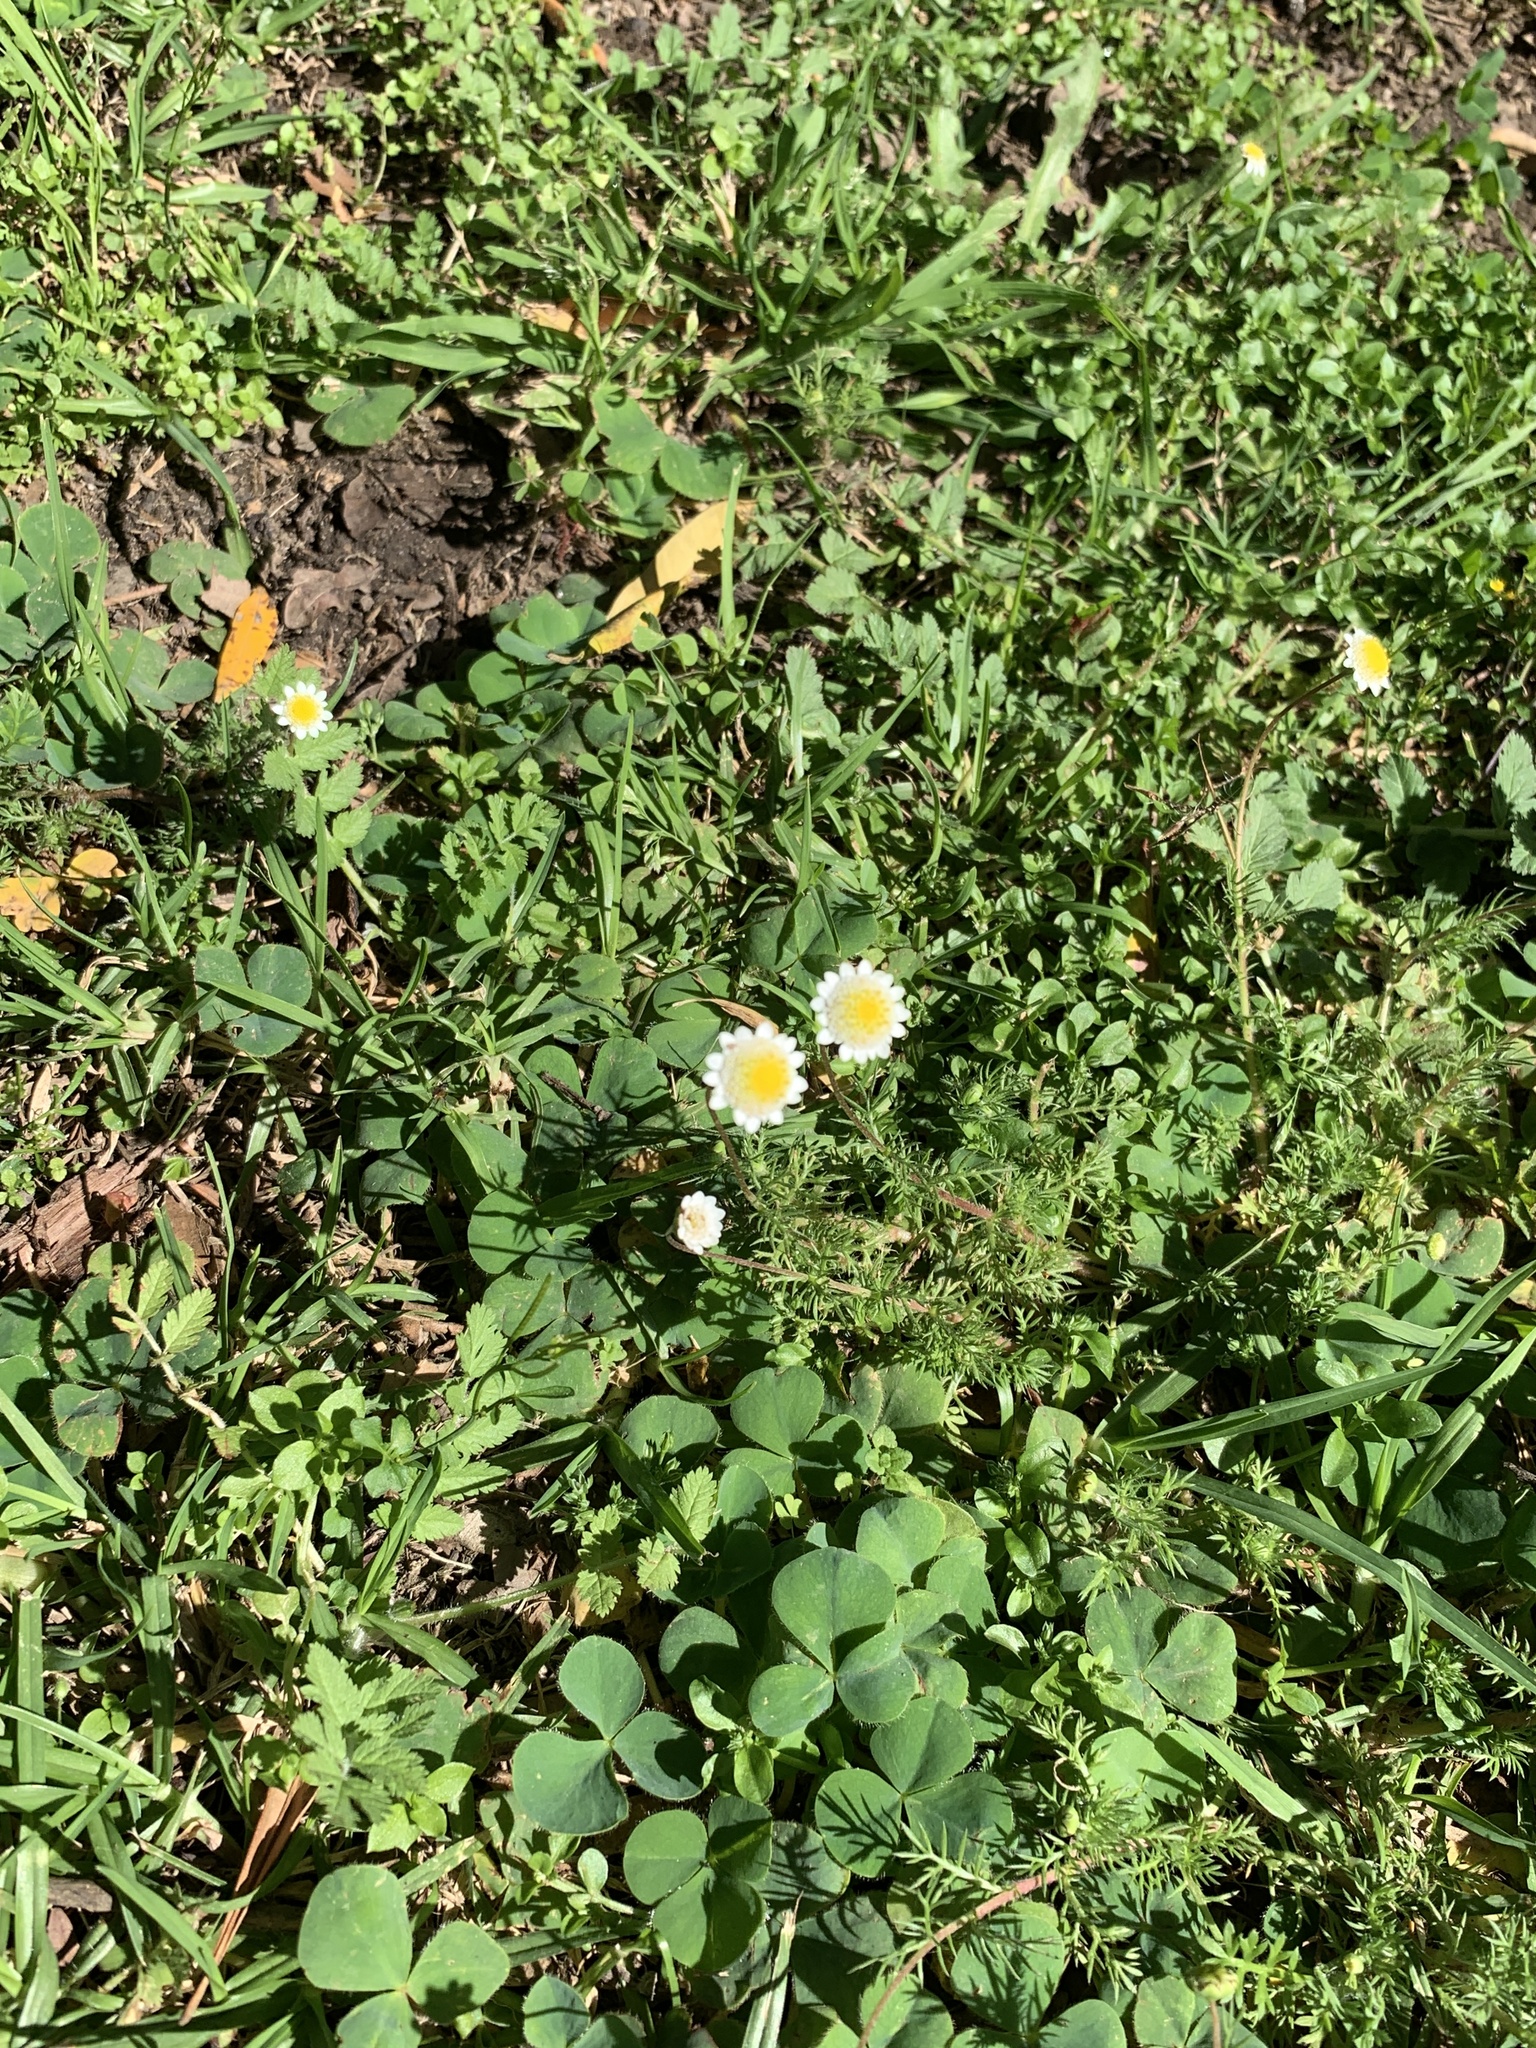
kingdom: Plantae
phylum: Tracheophyta
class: Magnoliopsida
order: Asterales
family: Asteraceae
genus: Cotula
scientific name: Cotula turbinata
